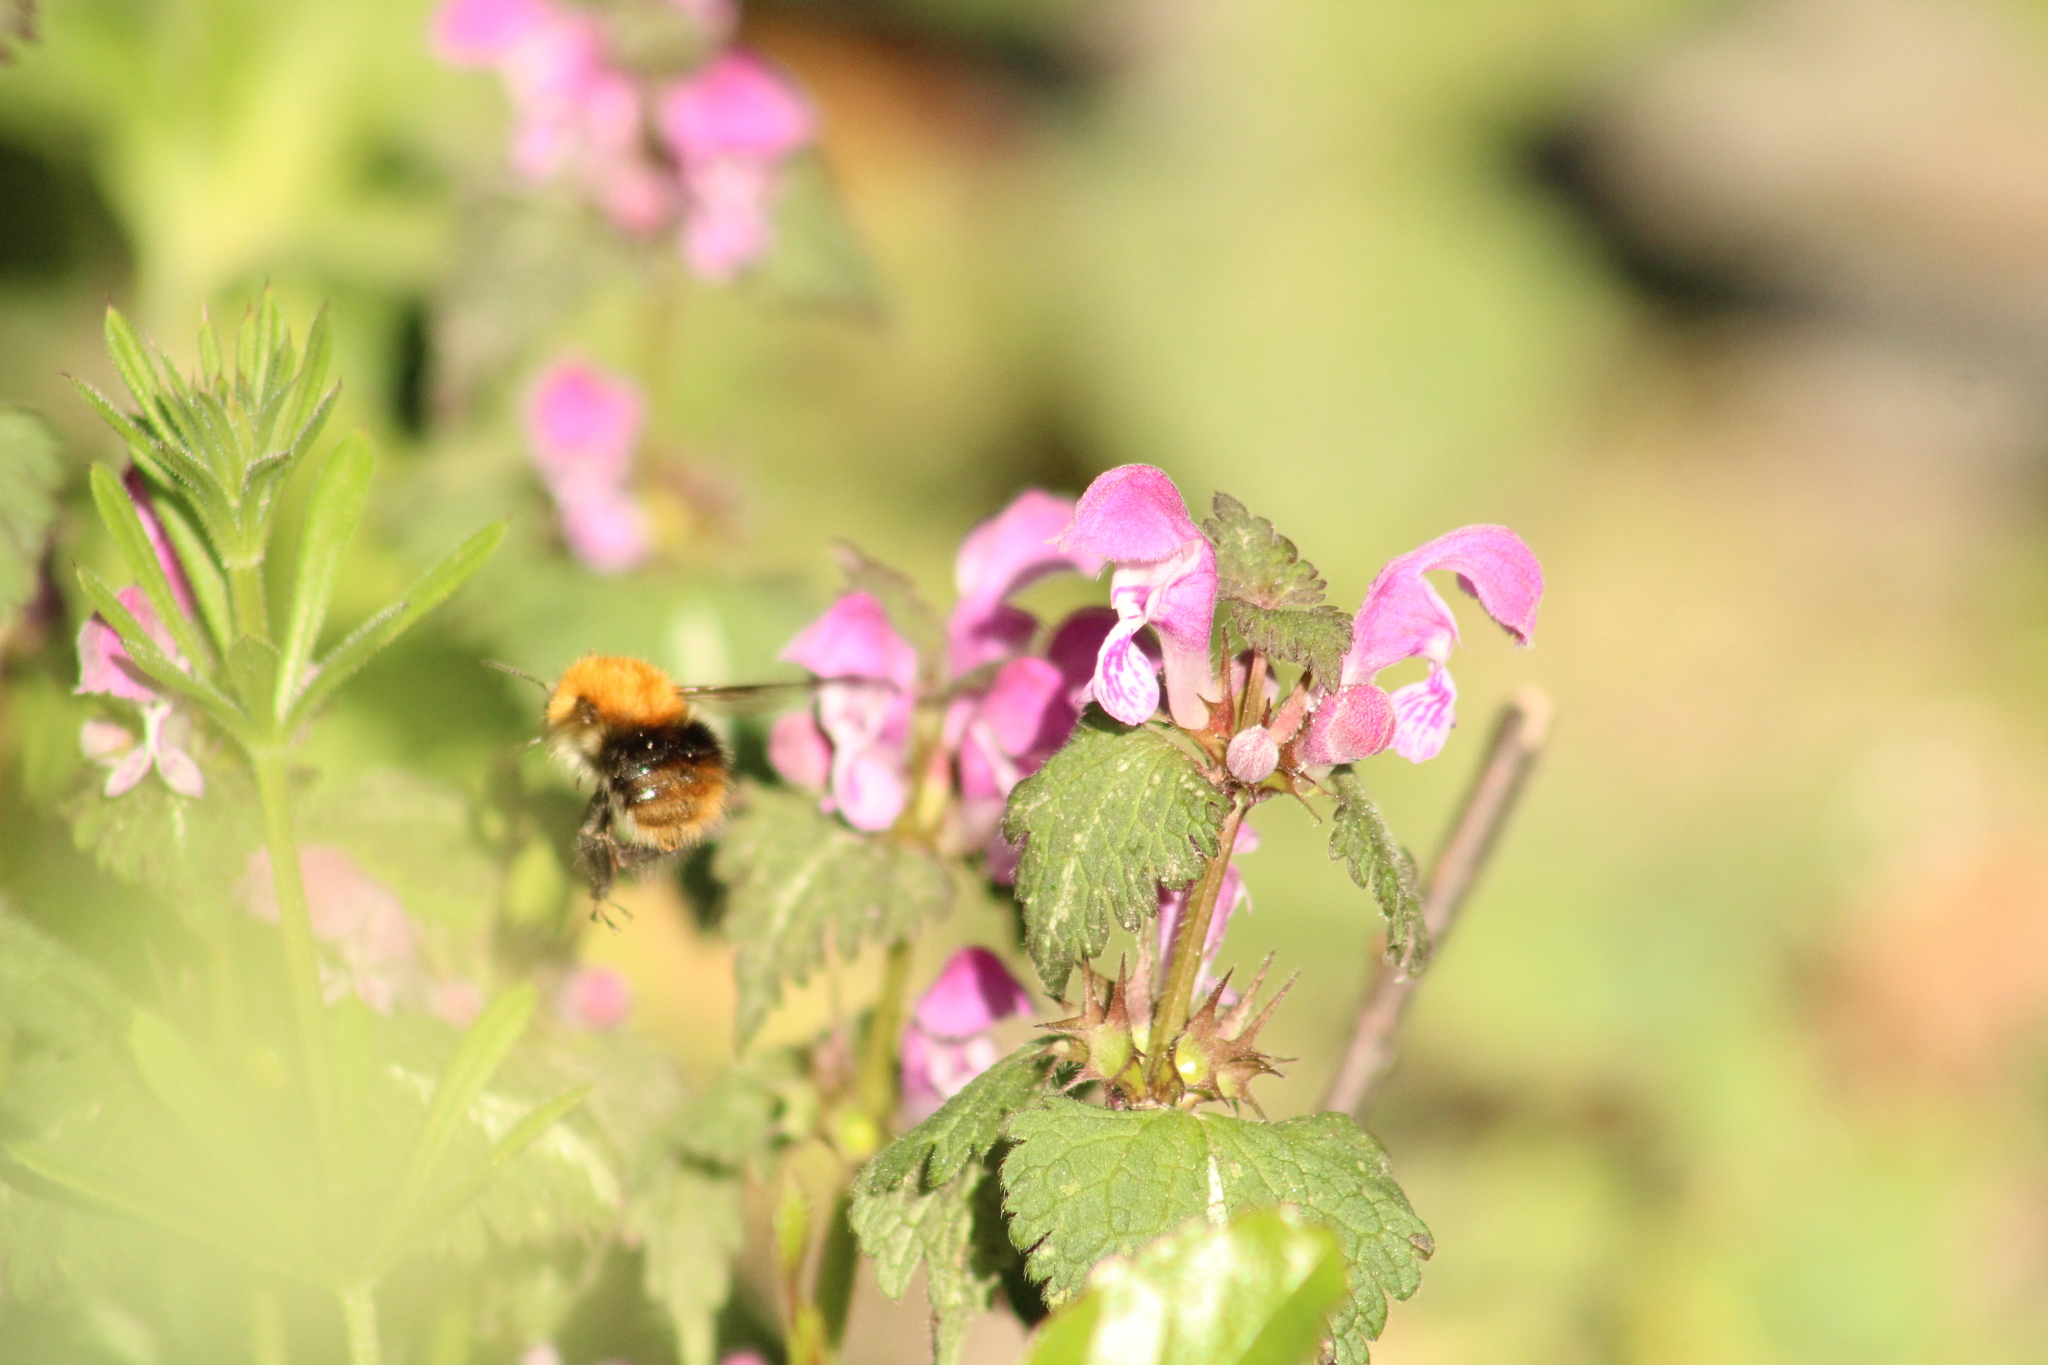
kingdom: Animalia
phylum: Arthropoda
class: Insecta
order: Hymenoptera
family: Apidae
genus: Bombus
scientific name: Bombus pascuorum
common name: Common carder bee
